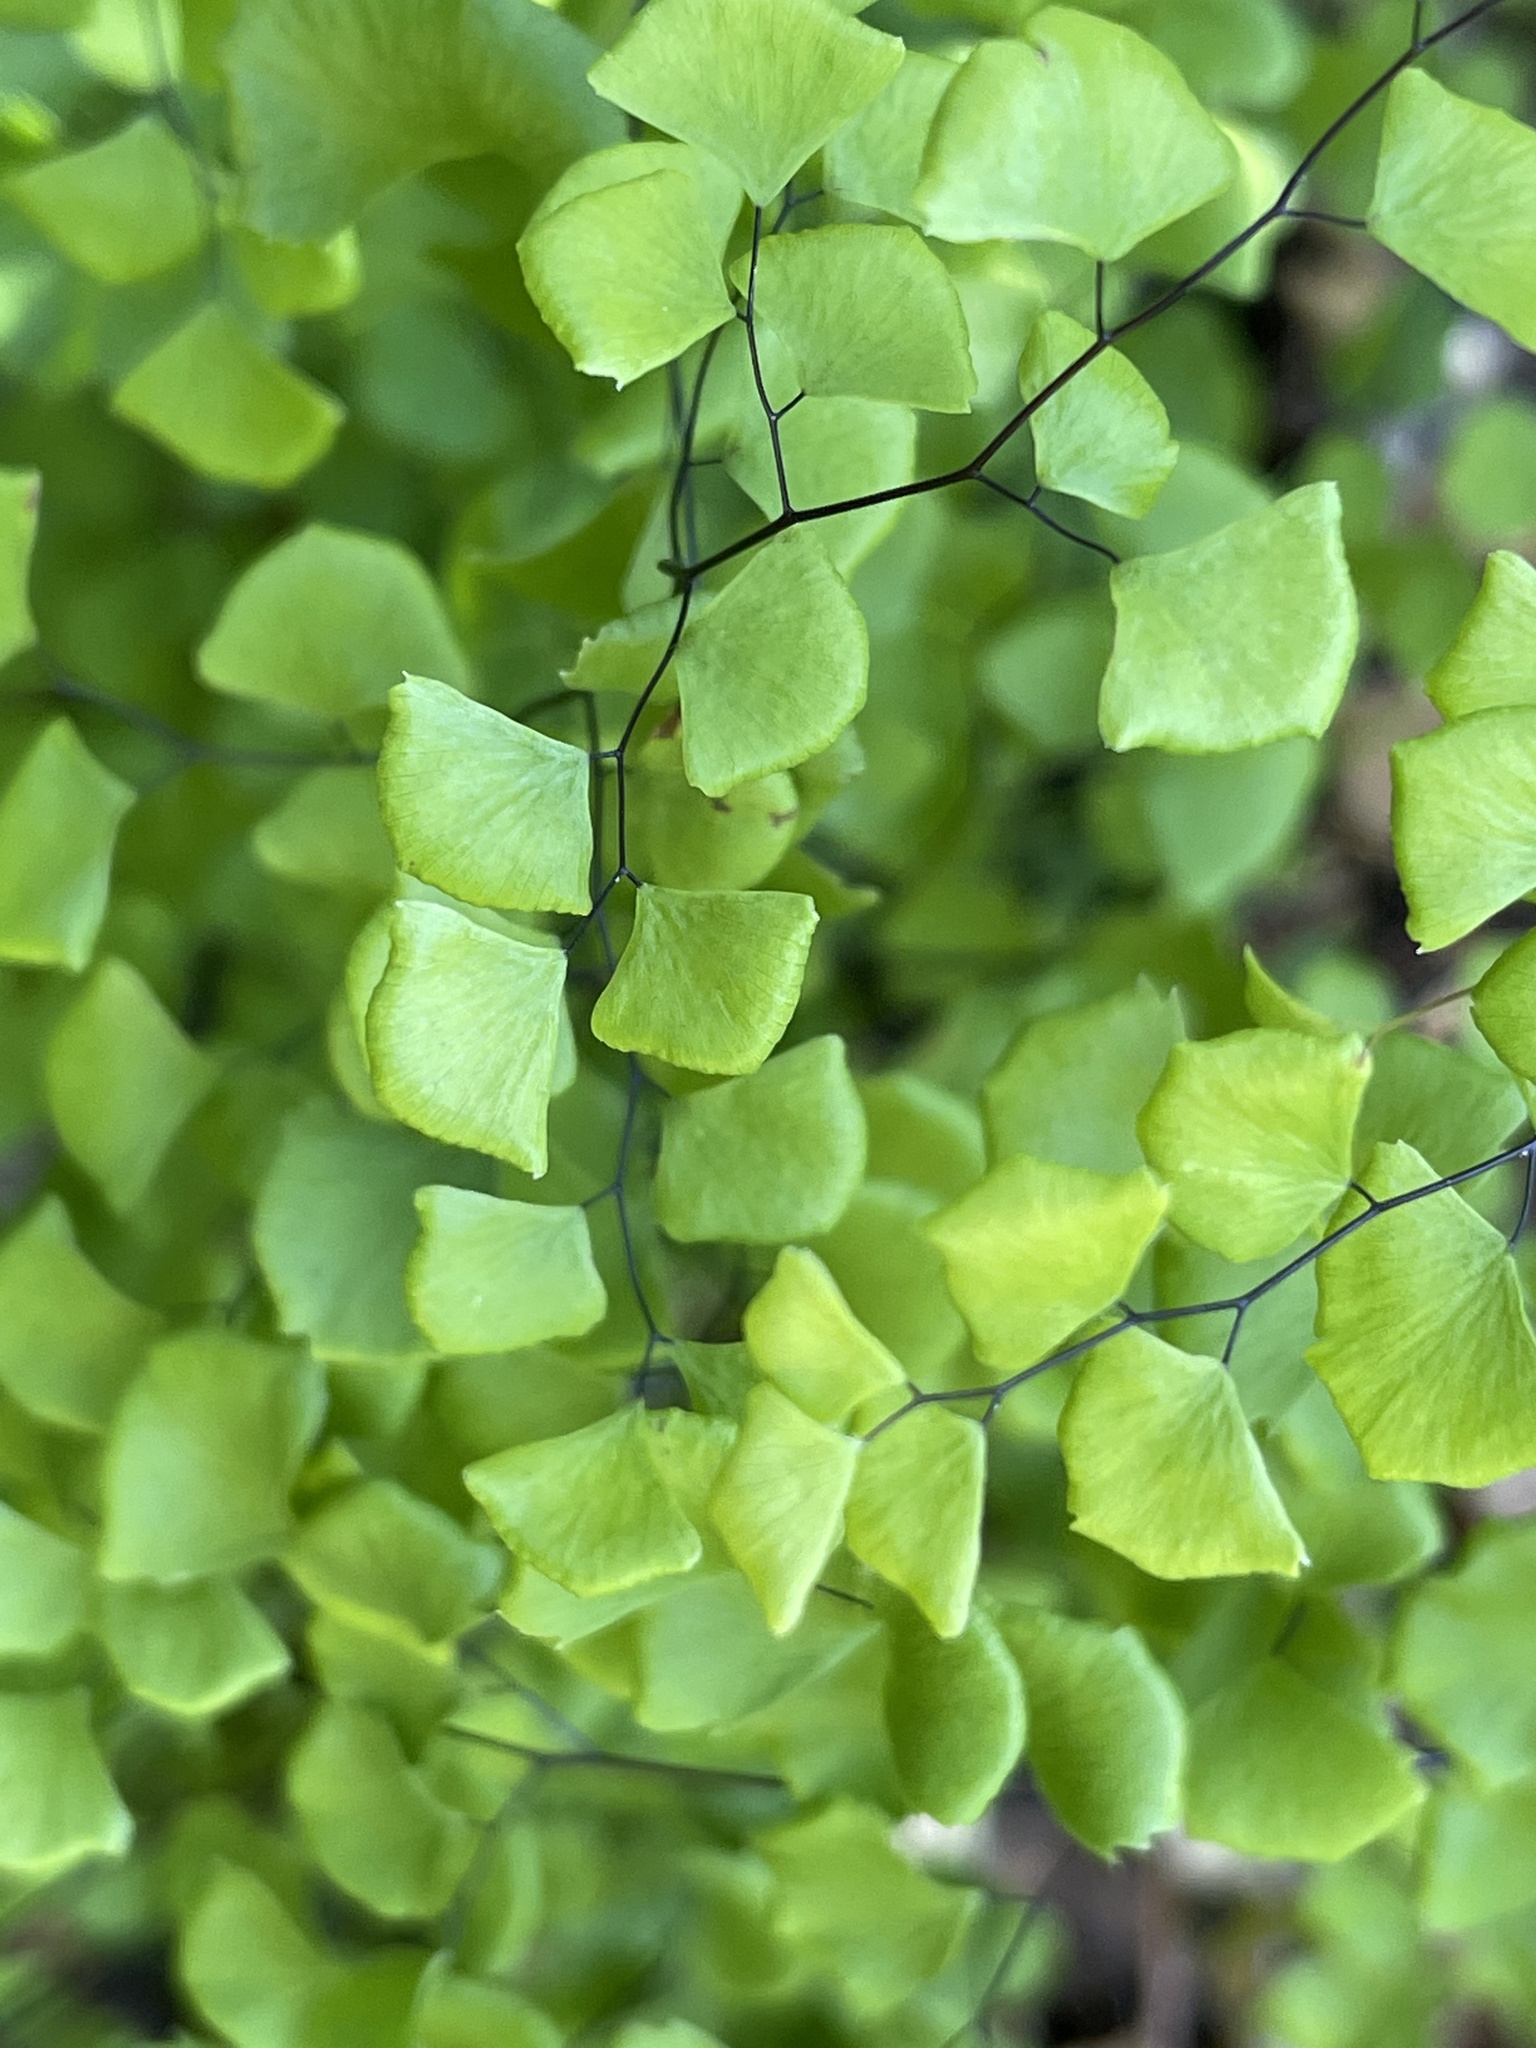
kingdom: Plantae
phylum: Tracheophyta
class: Polypodiopsida
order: Polypodiales
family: Pteridaceae
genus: Adiantum
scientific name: Adiantum jordanii
